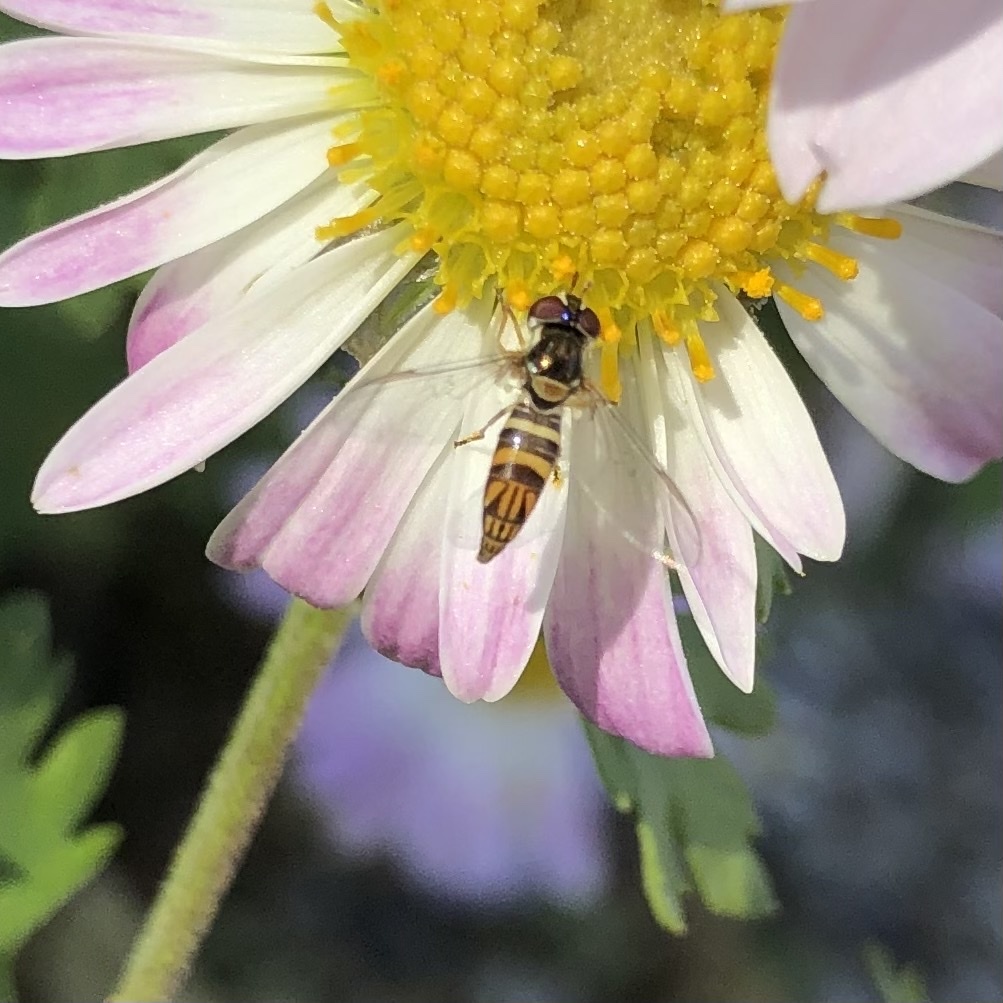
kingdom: Animalia
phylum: Arthropoda
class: Insecta
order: Diptera
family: Syrphidae
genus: Allograpta
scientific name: Allograpta obliqua
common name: Common oblique syrphid
